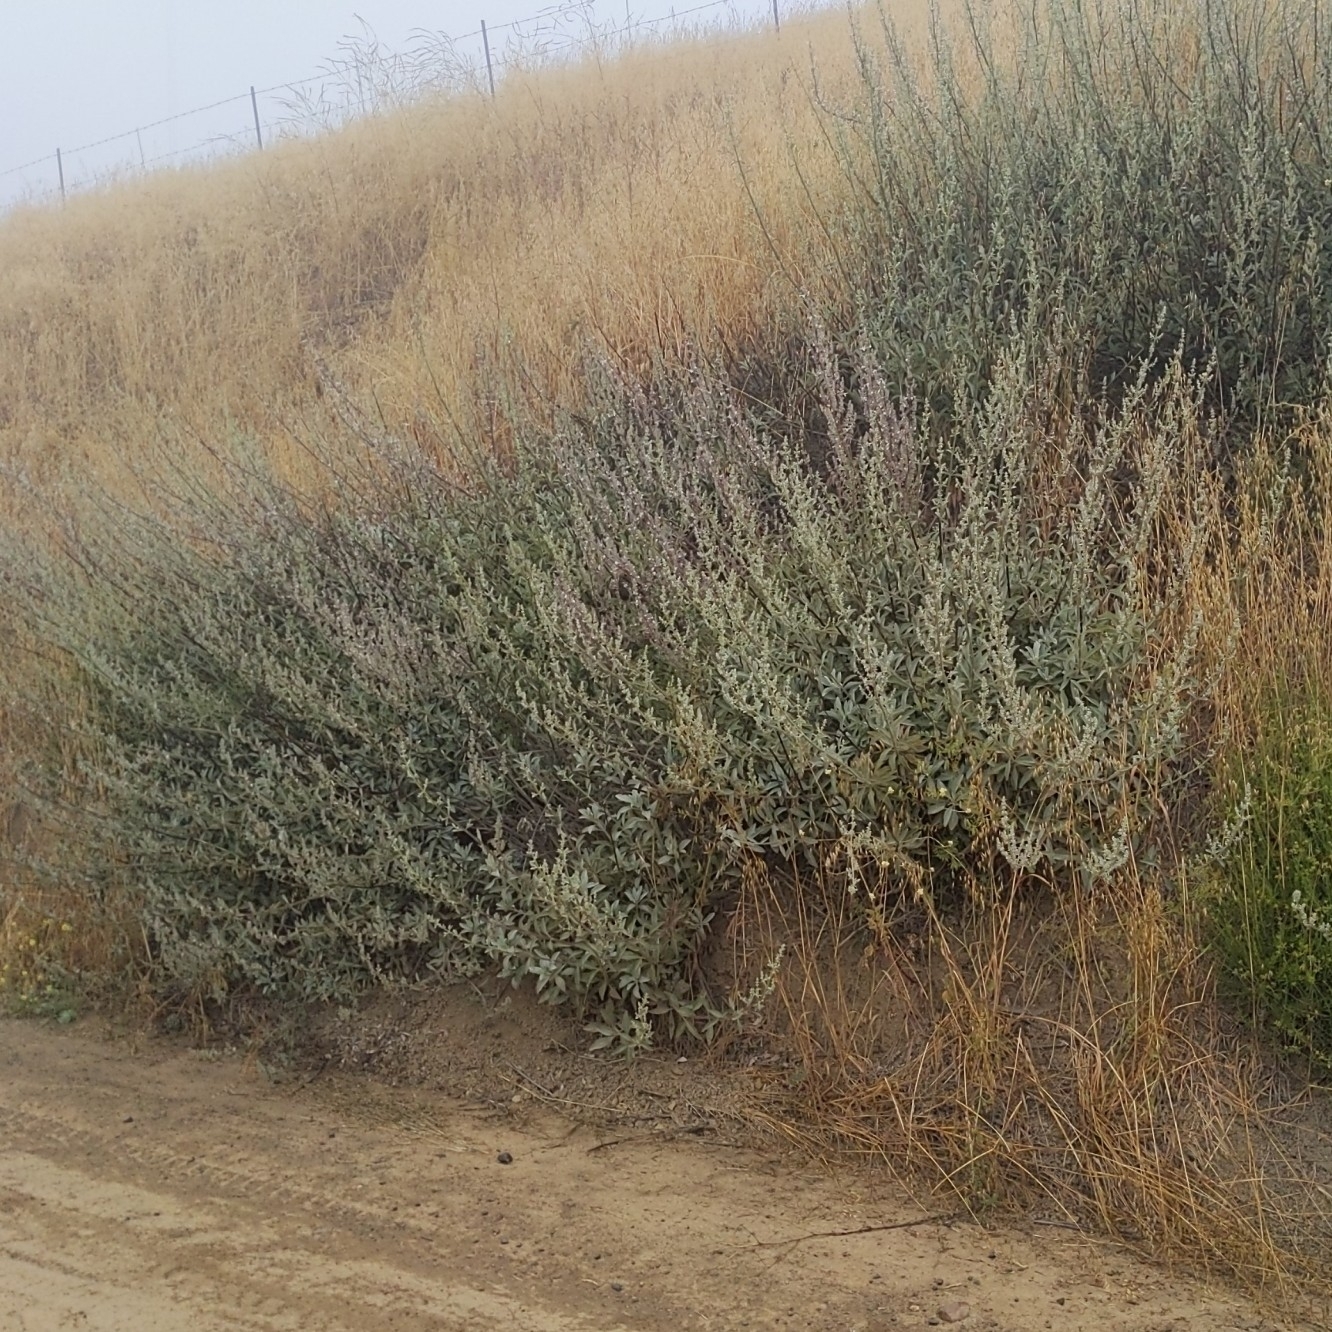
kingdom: Plantae
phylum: Tracheophyta
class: Magnoliopsida
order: Lamiales
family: Lamiaceae
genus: Salvia
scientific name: Salvia apiana
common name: White sage
